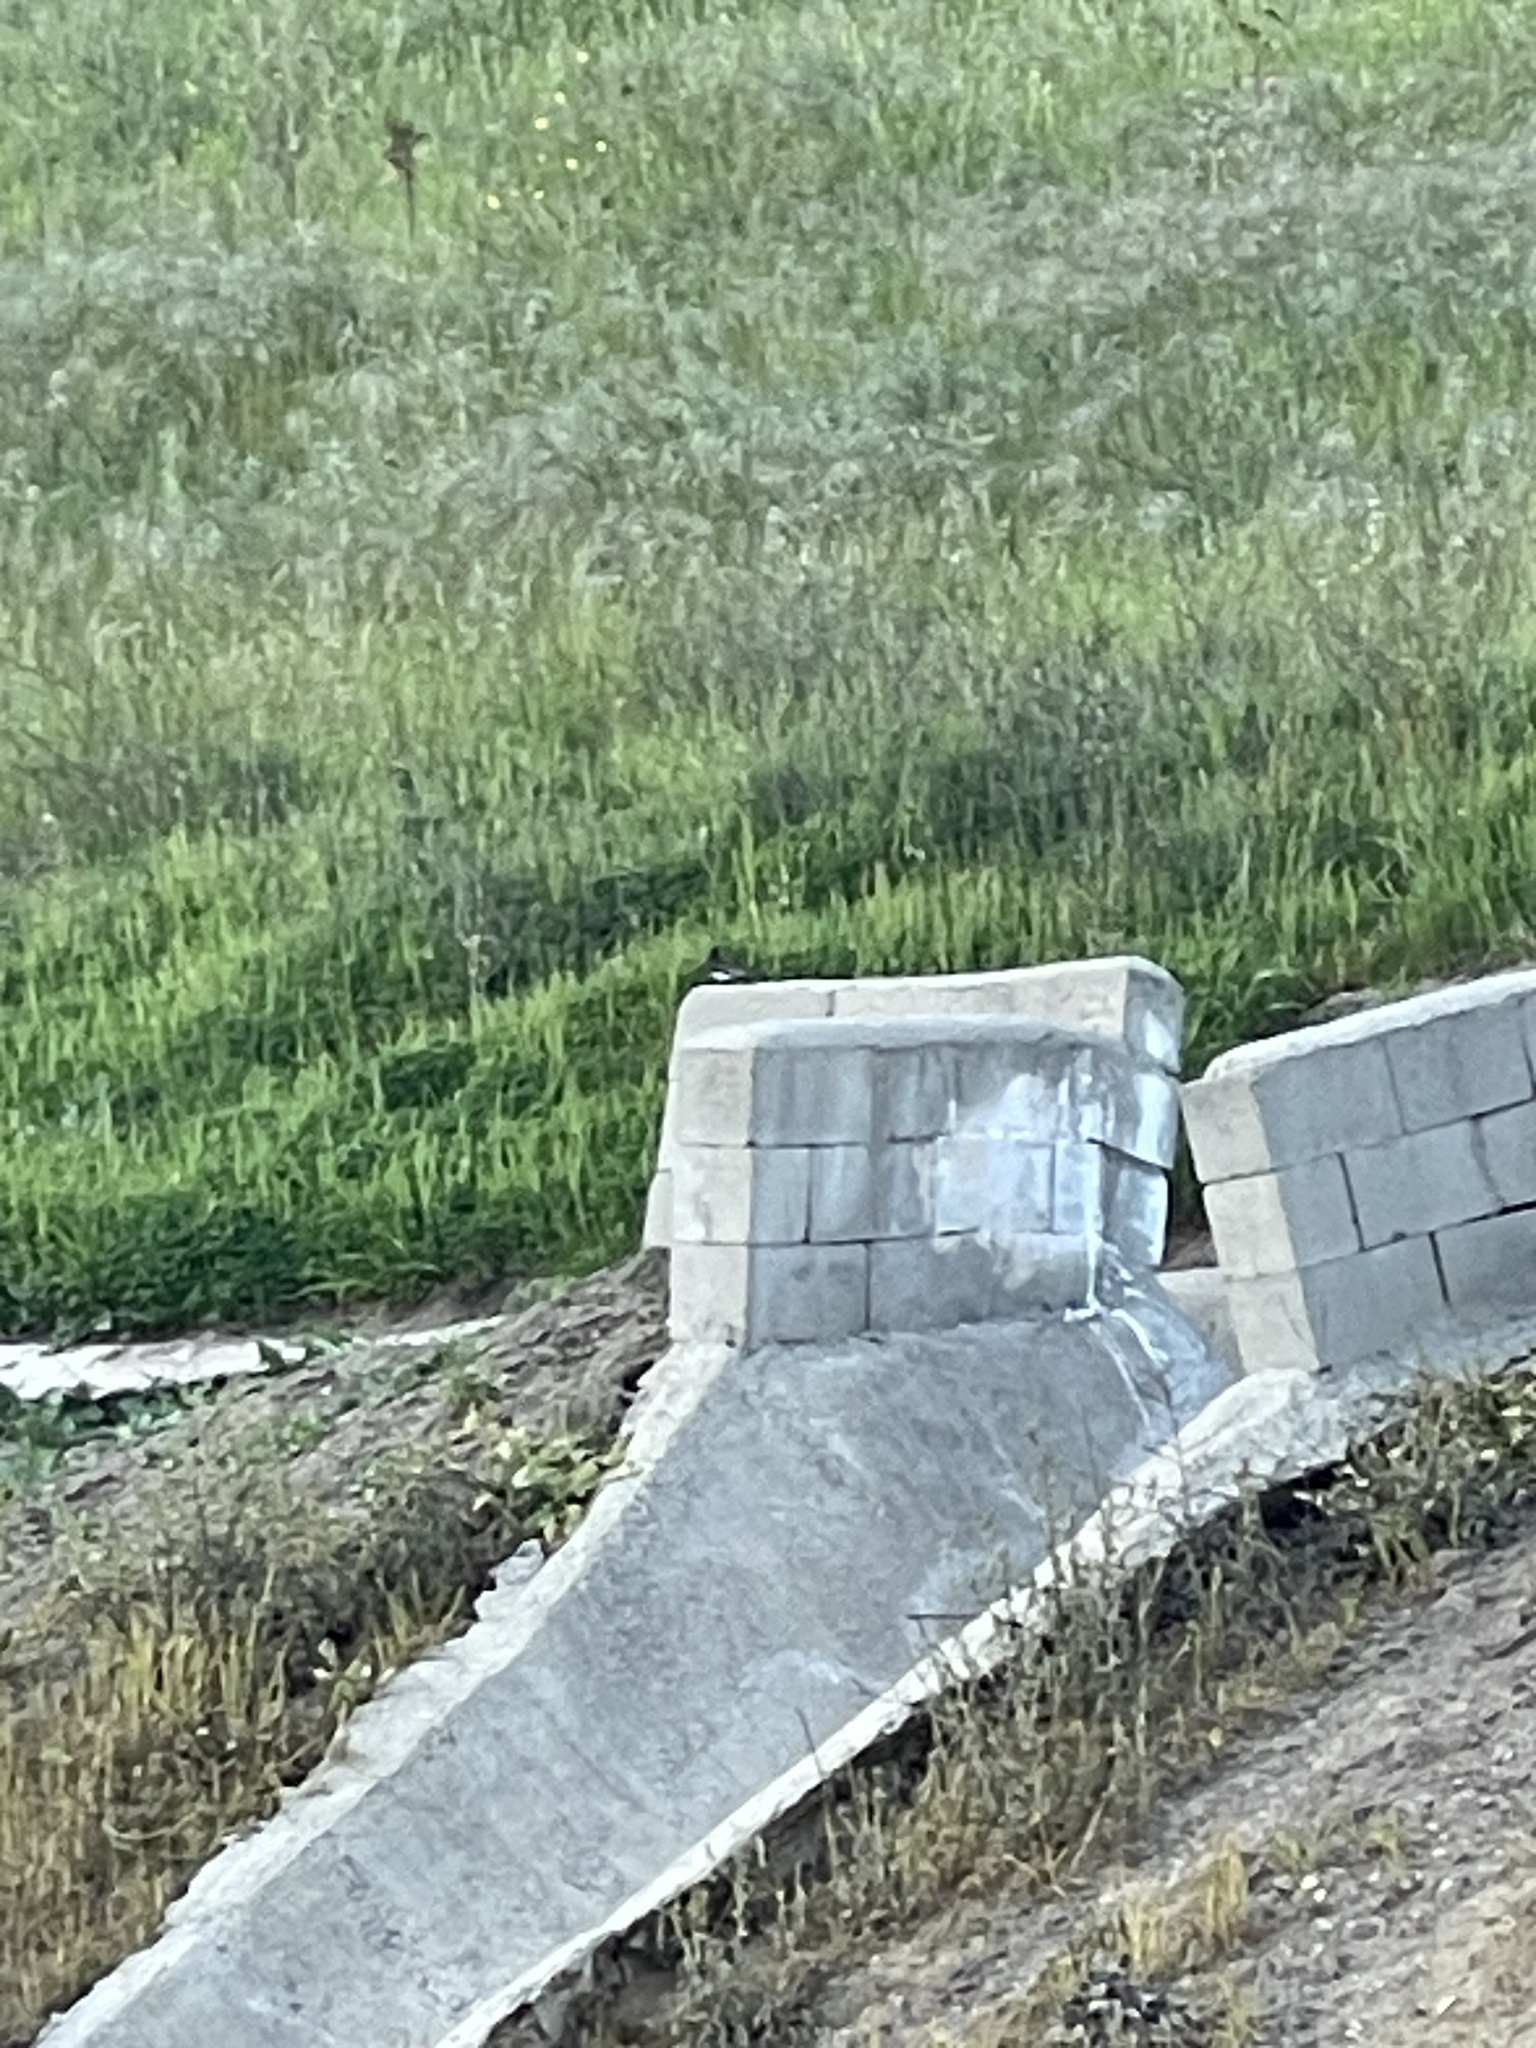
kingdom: Animalia
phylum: Chordata
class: Aves
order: Passeriformes
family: Tyrannidae
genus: Sayornis
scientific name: Sayornis nigricans
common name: Black phoebe
